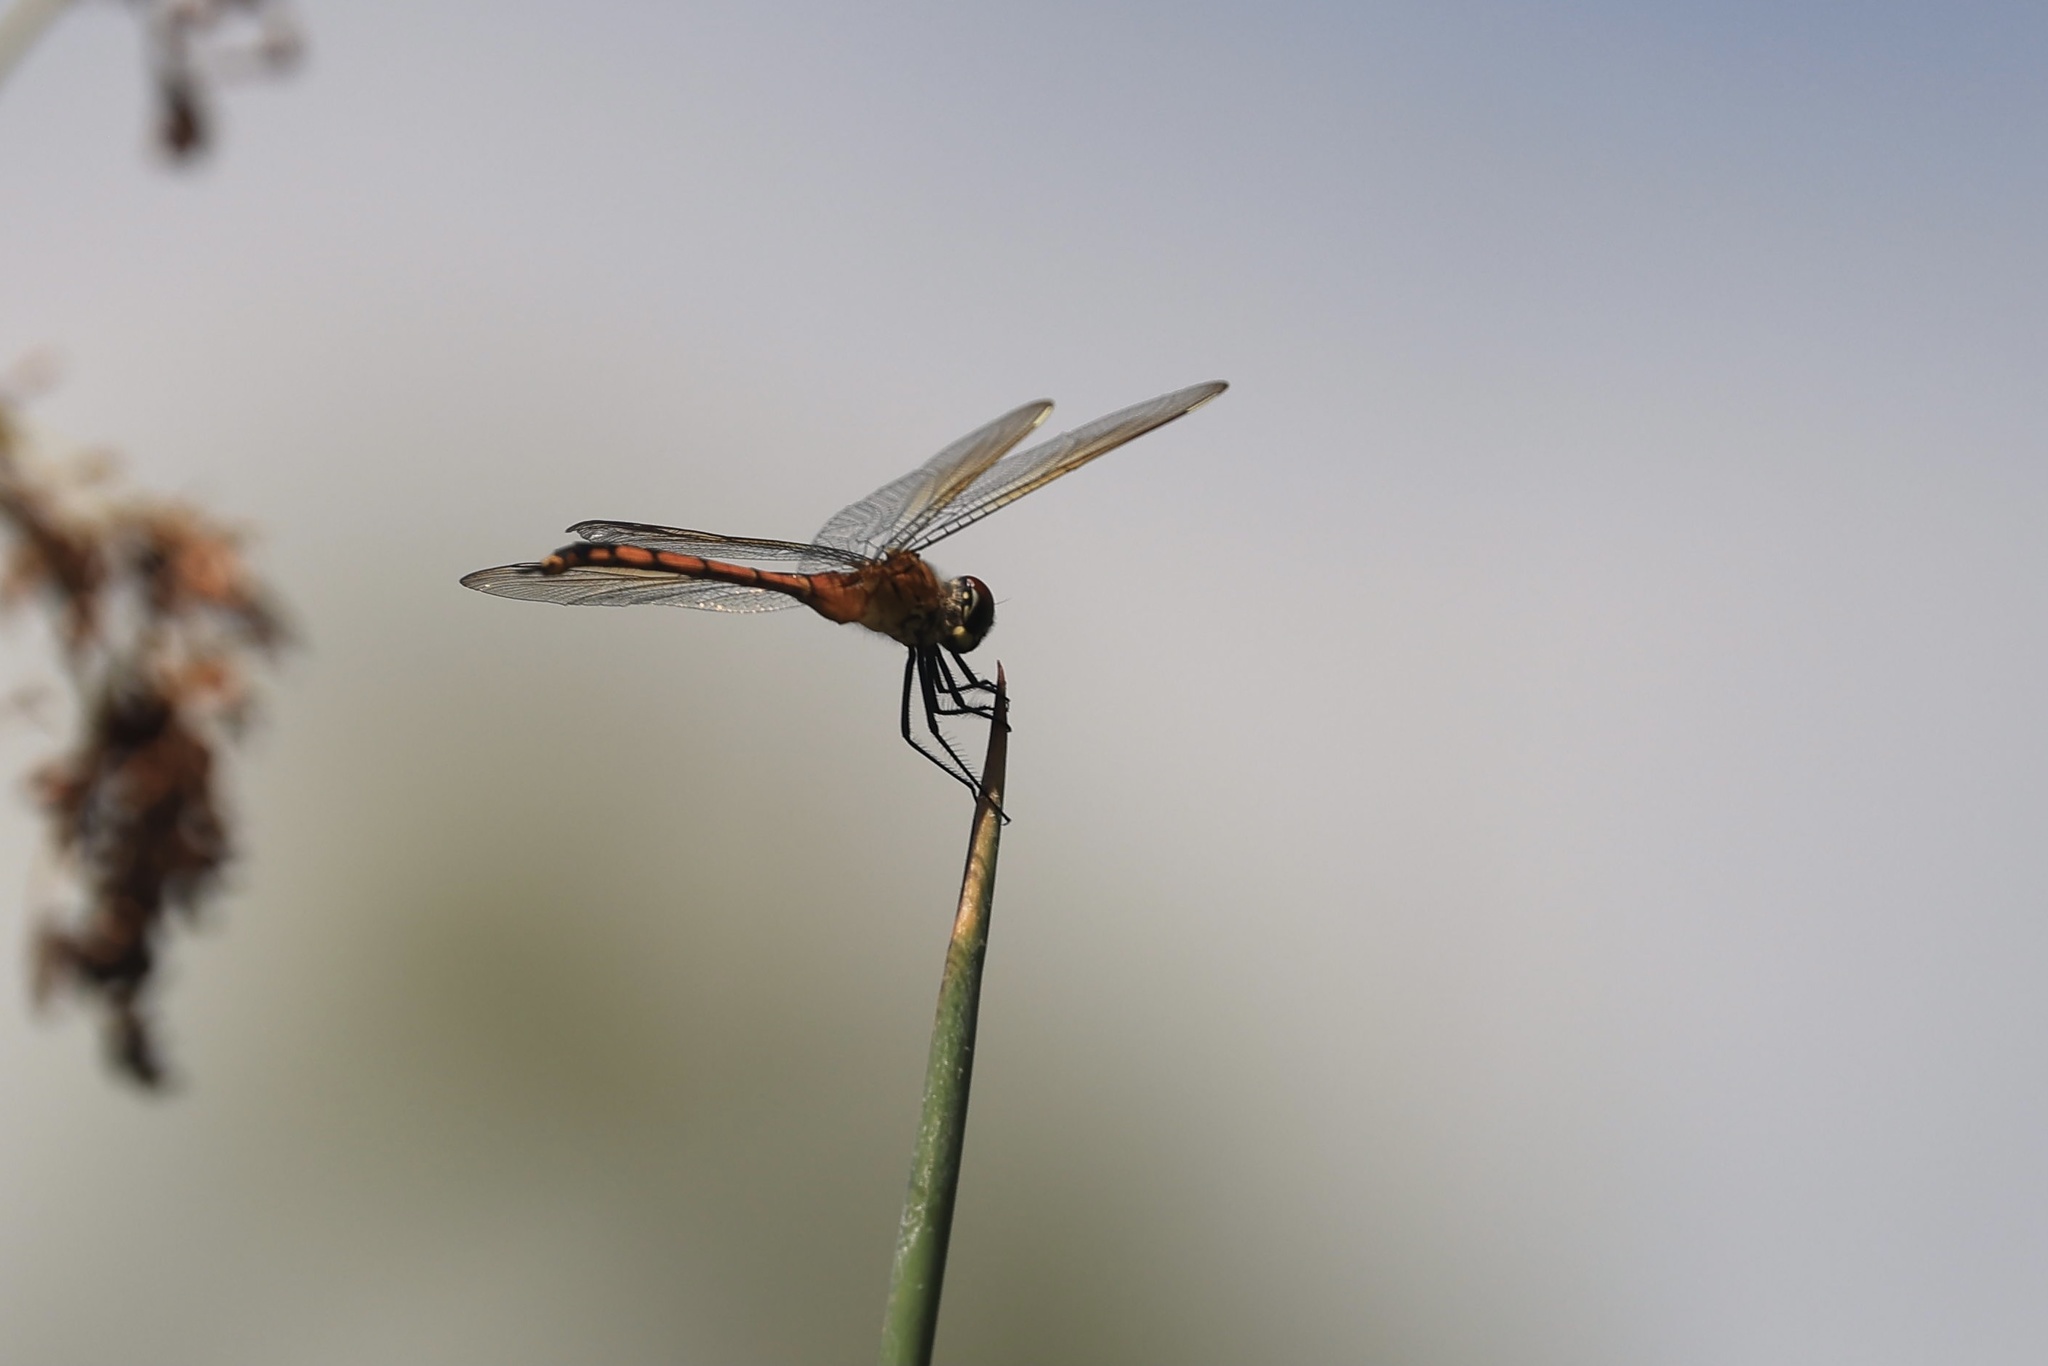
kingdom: Animalia
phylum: Arthropoda
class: Insecta
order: Odonata
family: Libellulidae
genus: Brachymesia
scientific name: Brachymesia gravida
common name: Four-spotted pennant
